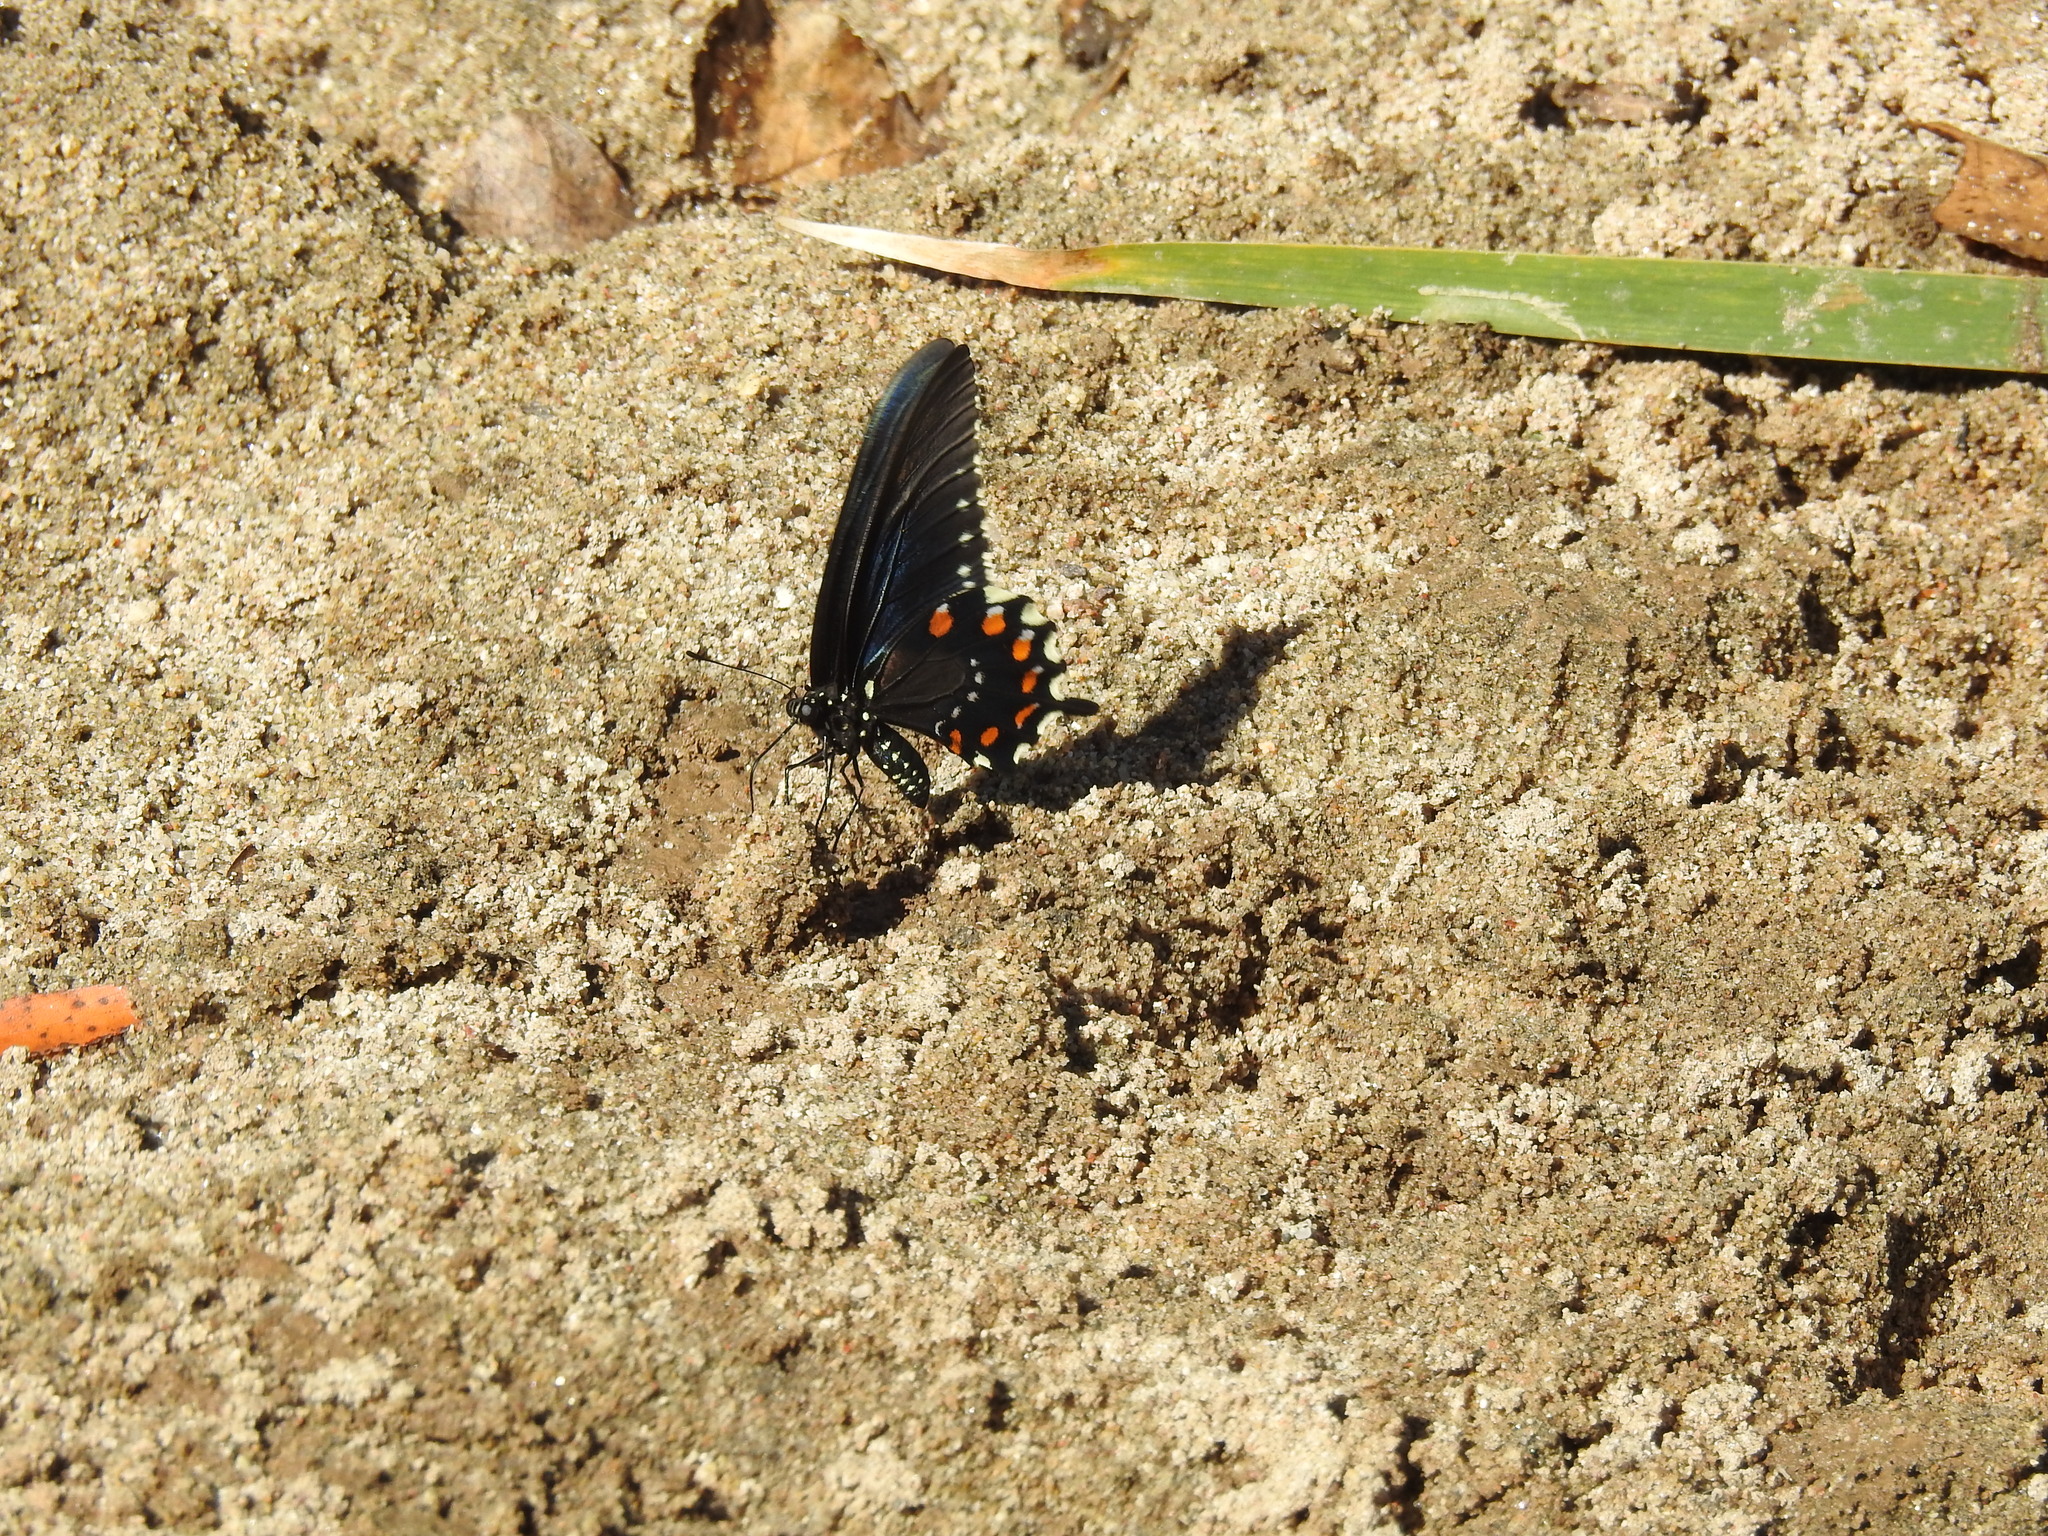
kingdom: Animalia
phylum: Arthropoda
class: Insecta
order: Lepidoptera
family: Papilionidae
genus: Battus
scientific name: Battus philenor
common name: Pipevine swallowtail
